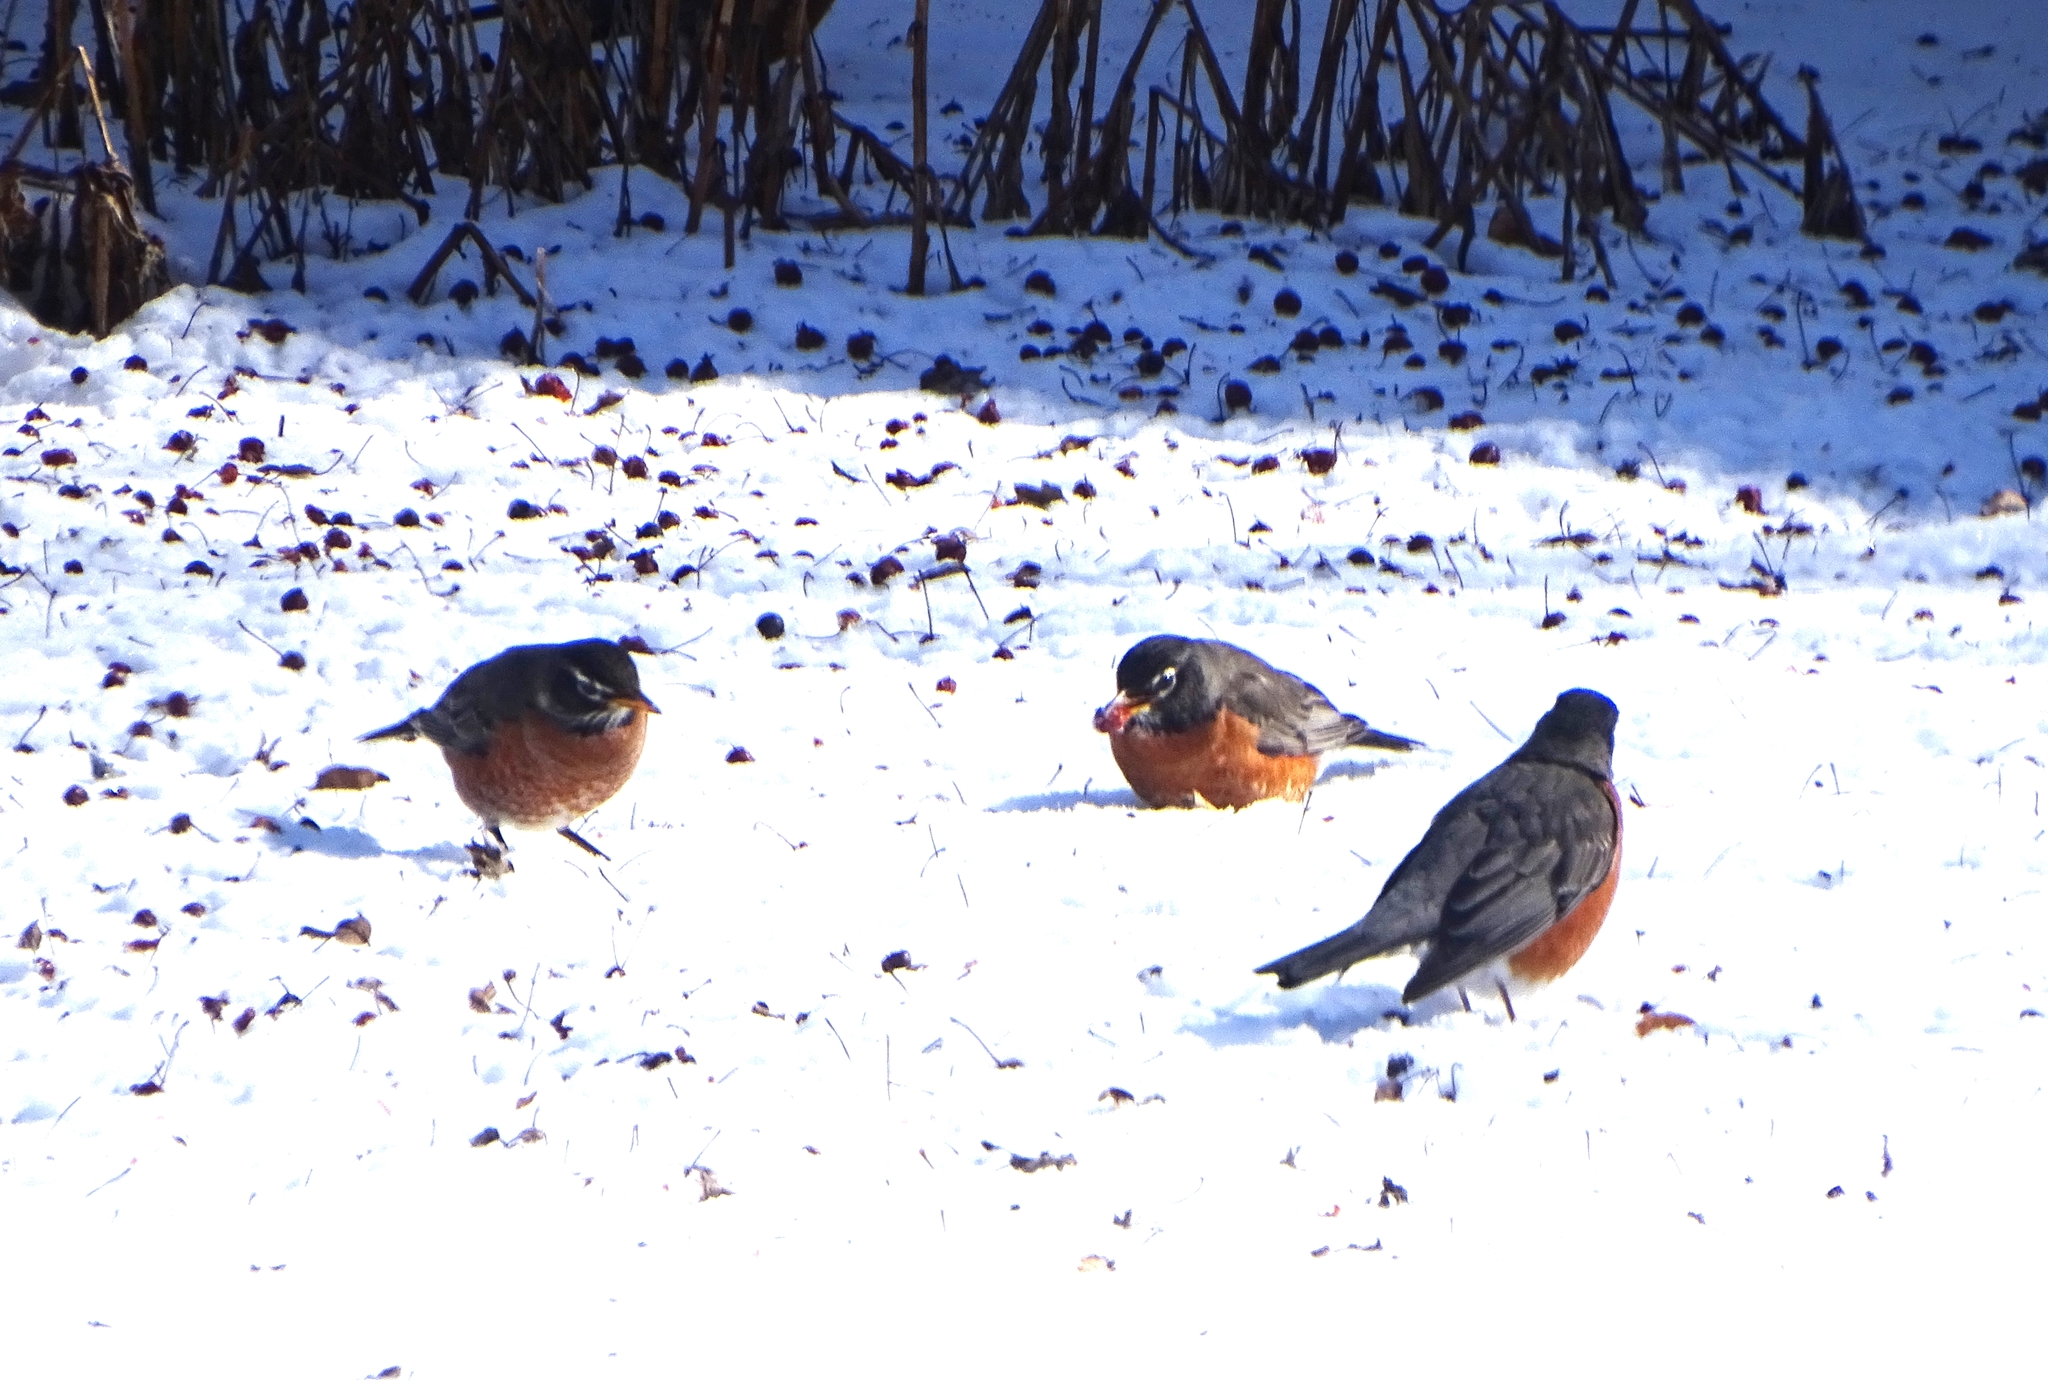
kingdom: Animalia
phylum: Chordata
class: Aves
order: Passeriformes
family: Turdidae
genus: Turdus
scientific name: Turdus migratorius
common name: American robin
